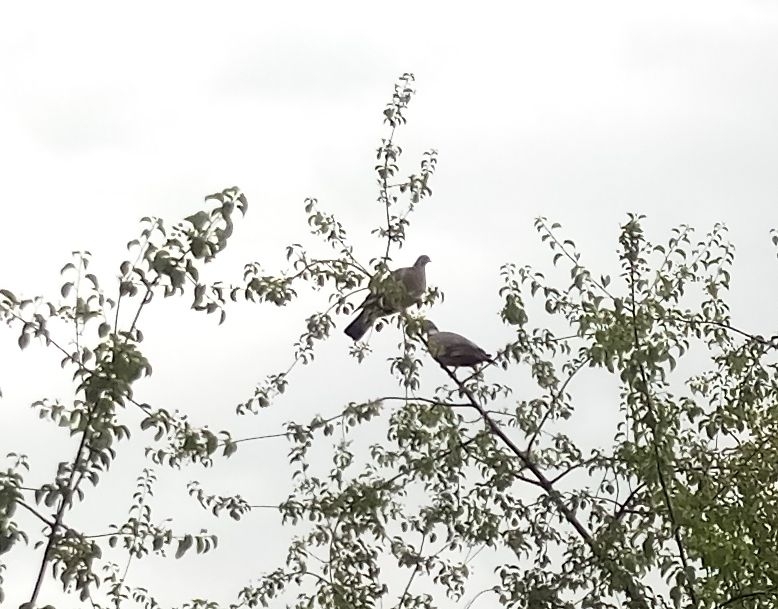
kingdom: Animalia
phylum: Chordata
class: Aves
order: Columbiformes
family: Columbidae
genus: Columba
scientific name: Columba palumbus
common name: Common wood pigeon
